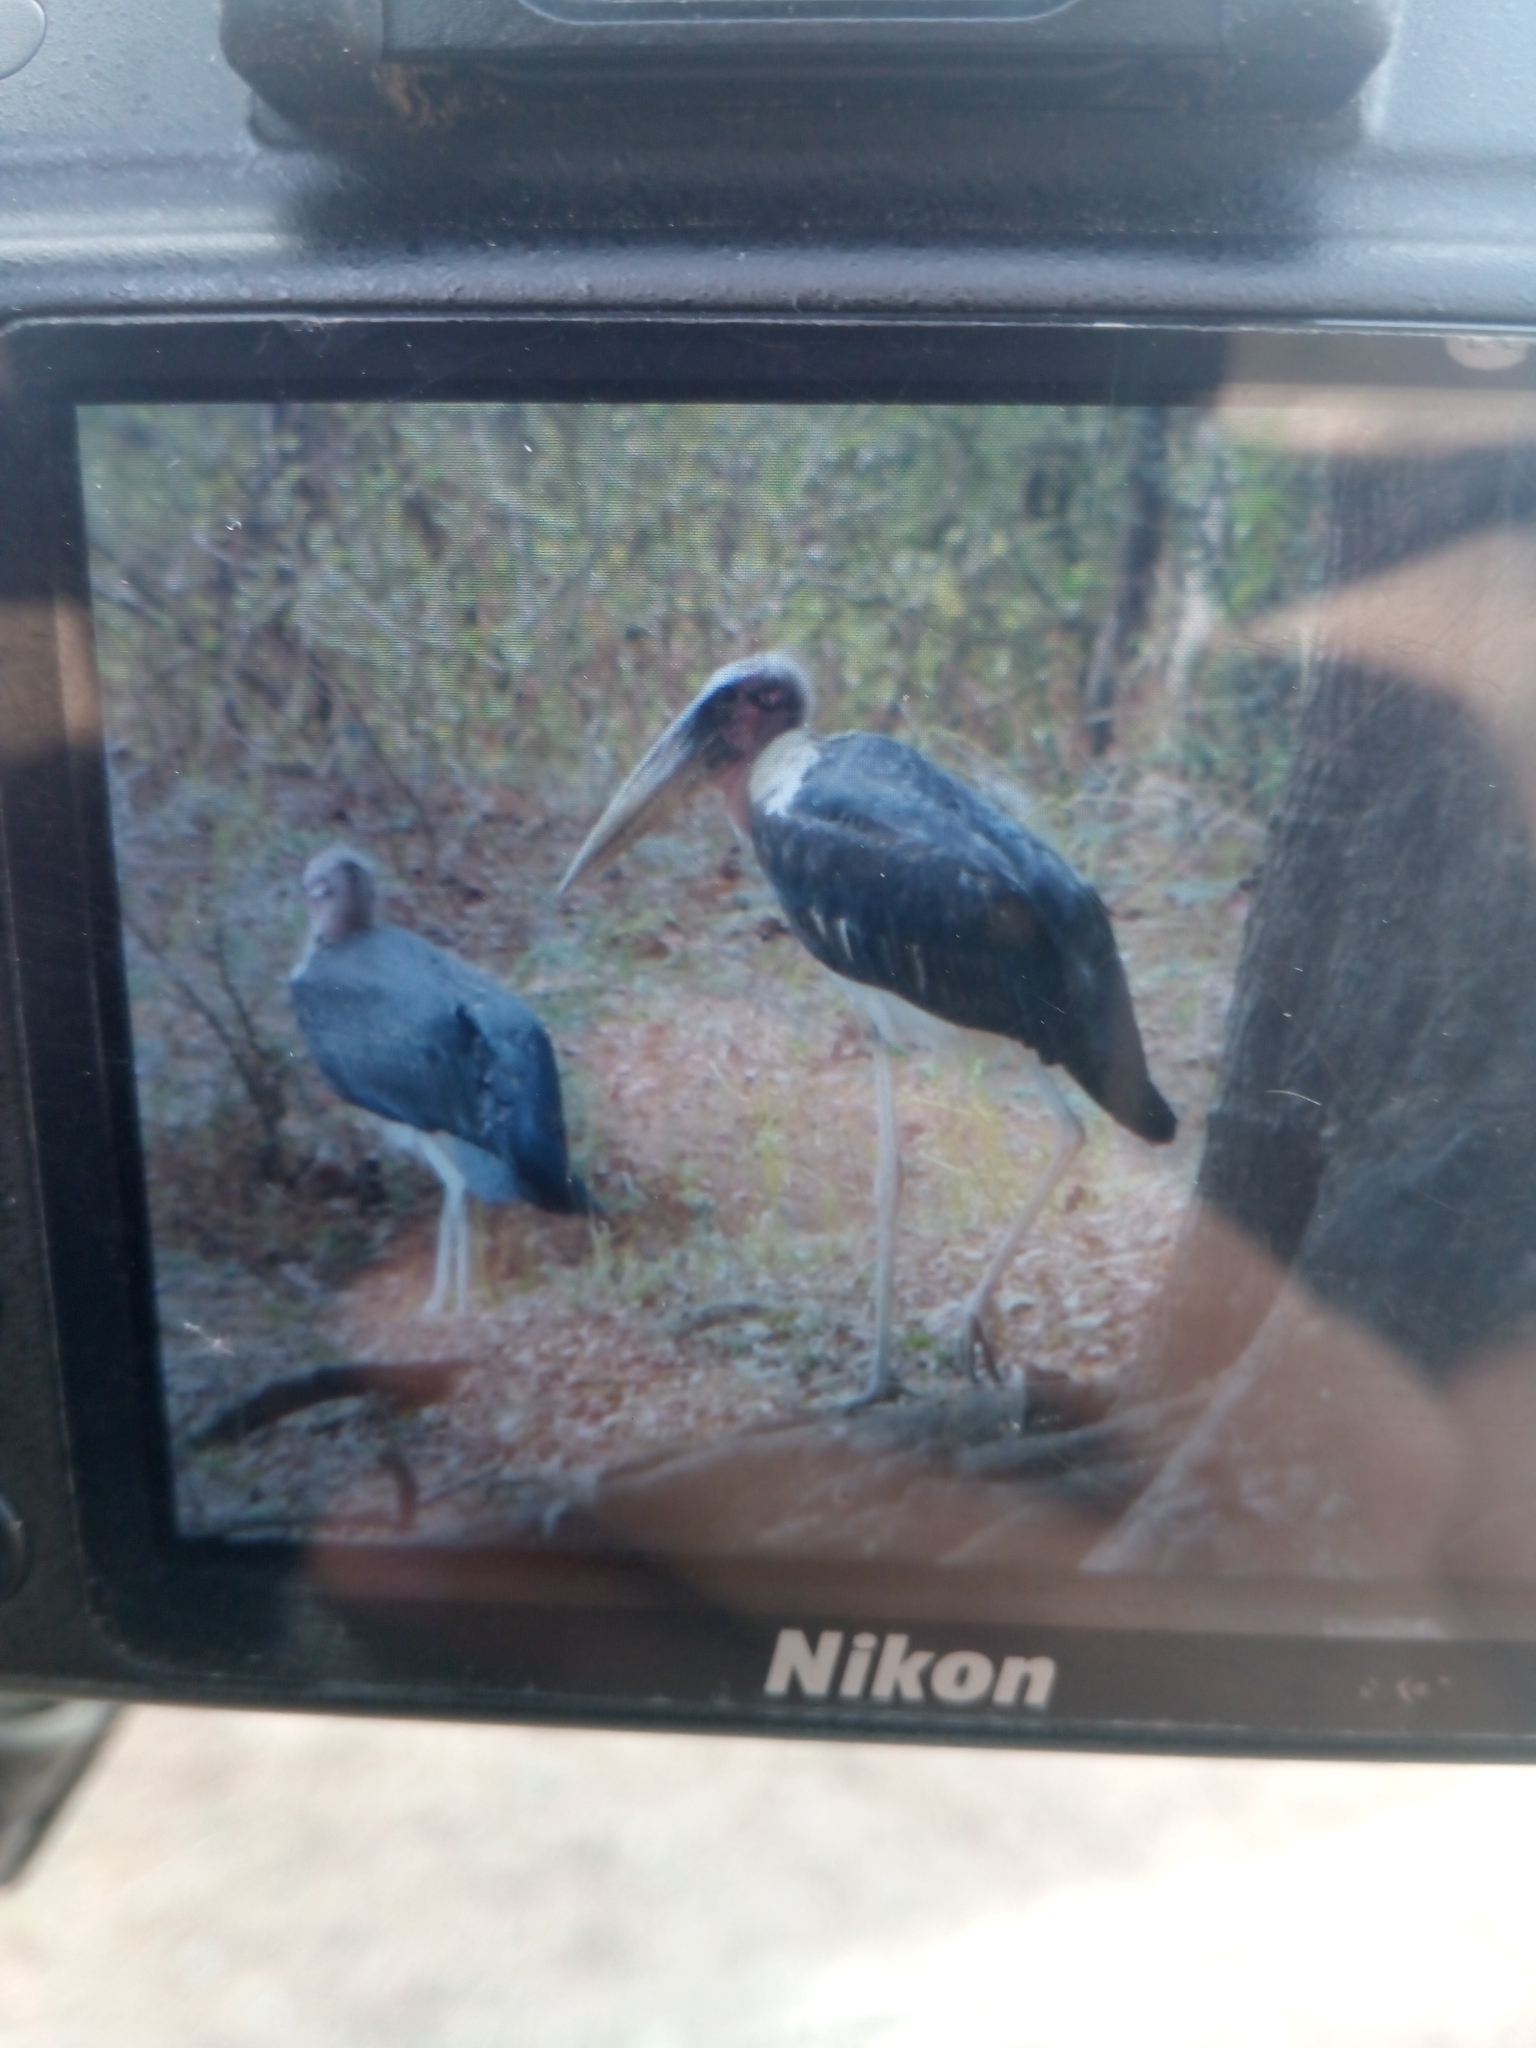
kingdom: Animalia
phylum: Chordata
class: Aves
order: Ciconiiformes
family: Ciconiidae
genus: Leptoptilos
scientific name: Leptoptilos crumenifer
